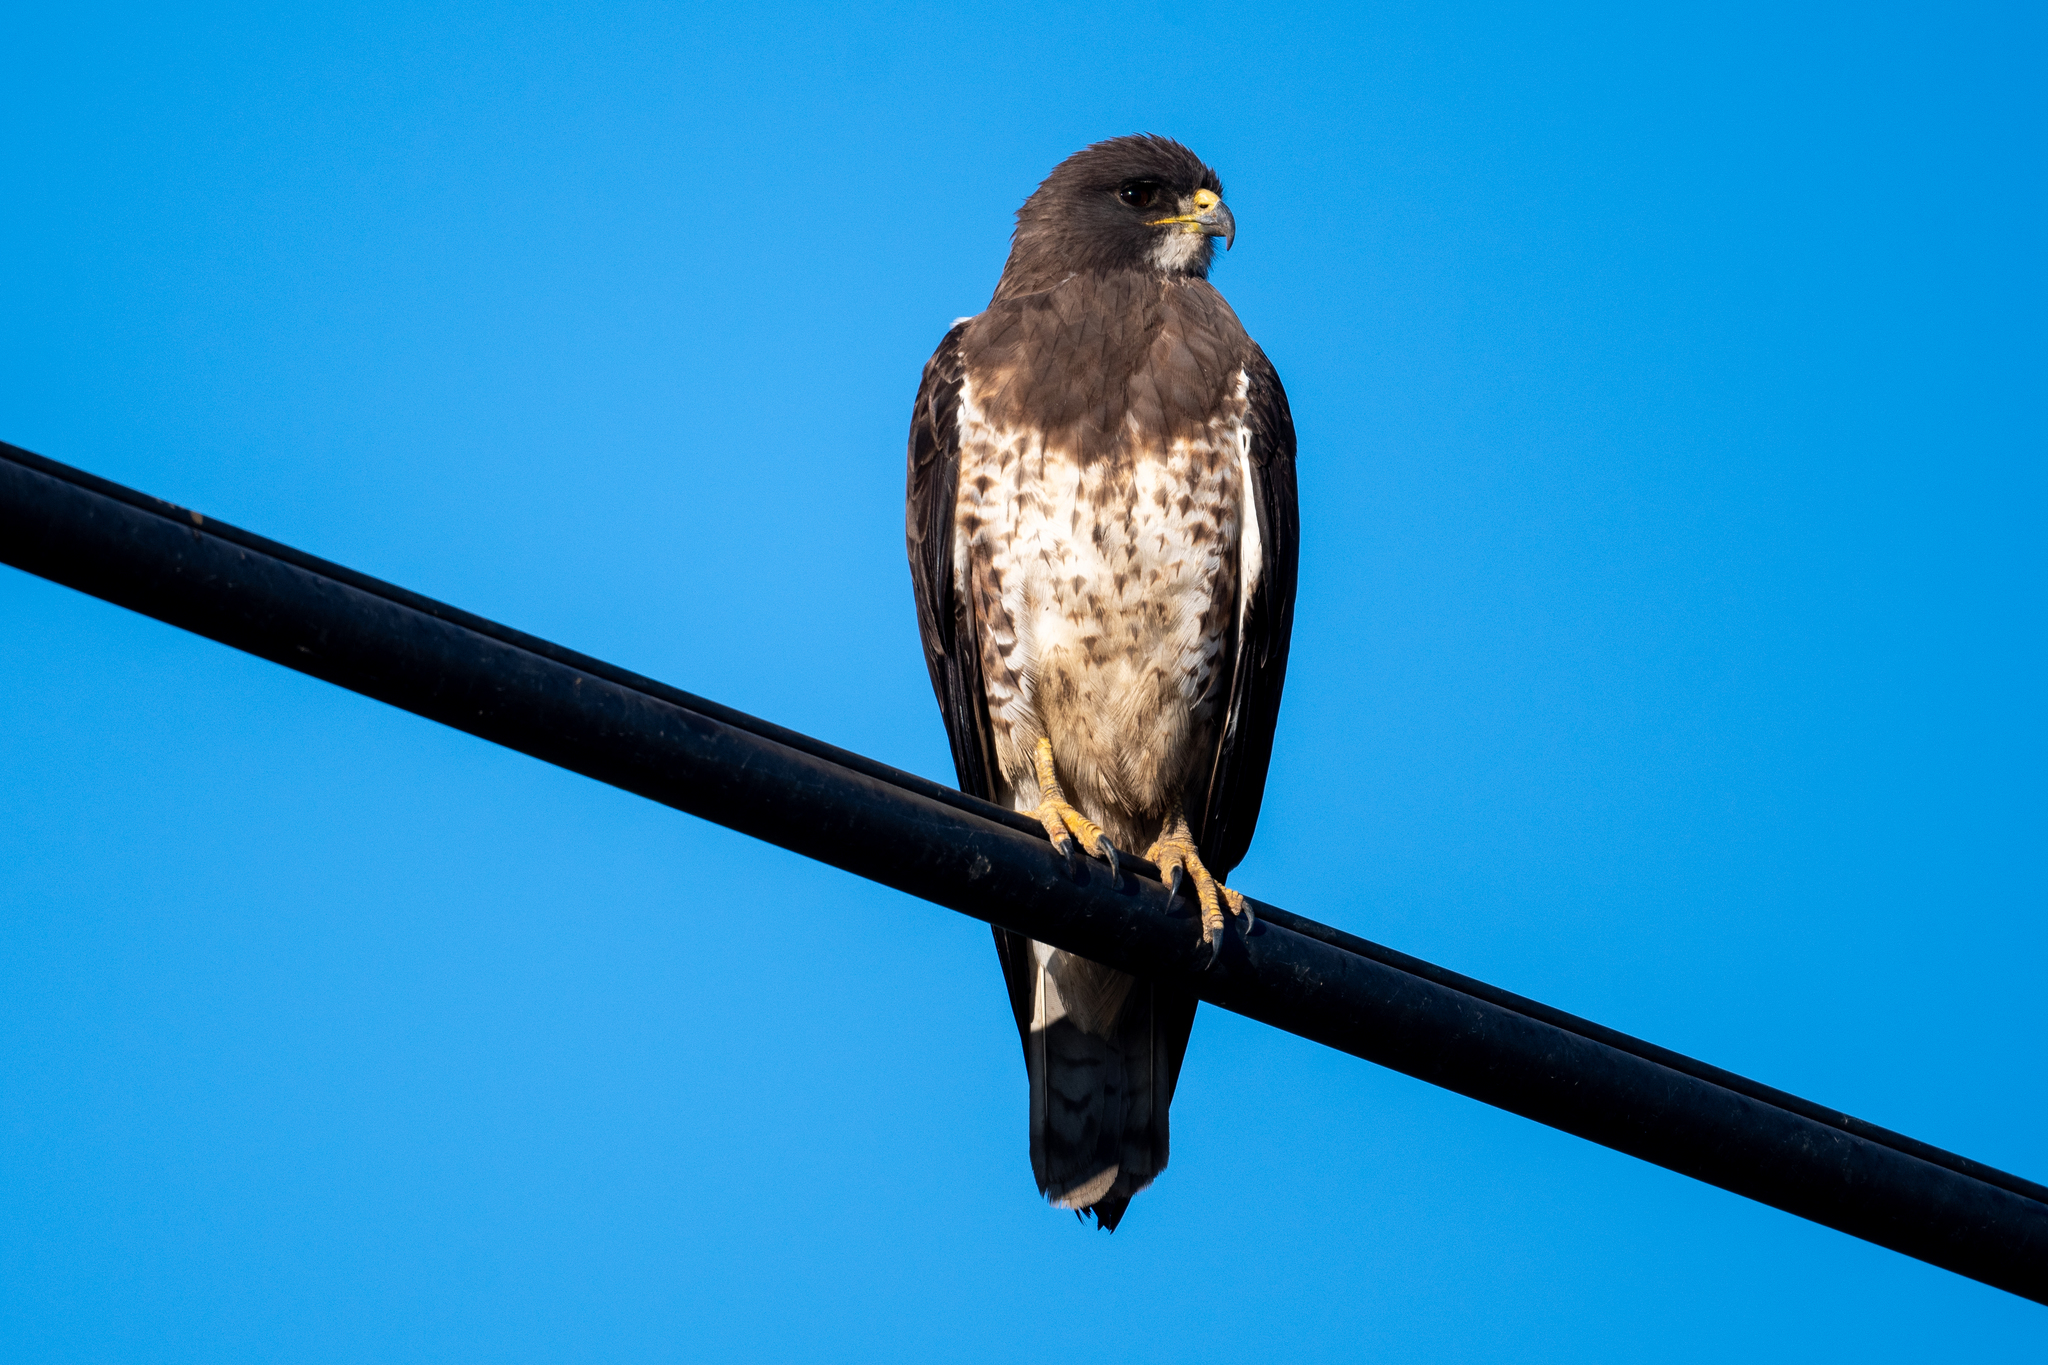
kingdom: Animalia
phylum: Chordata
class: Aves
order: Accipitriformes
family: Accipitridae
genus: Buteo
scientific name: Buteo swainsoni
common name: Swainson's hawk
